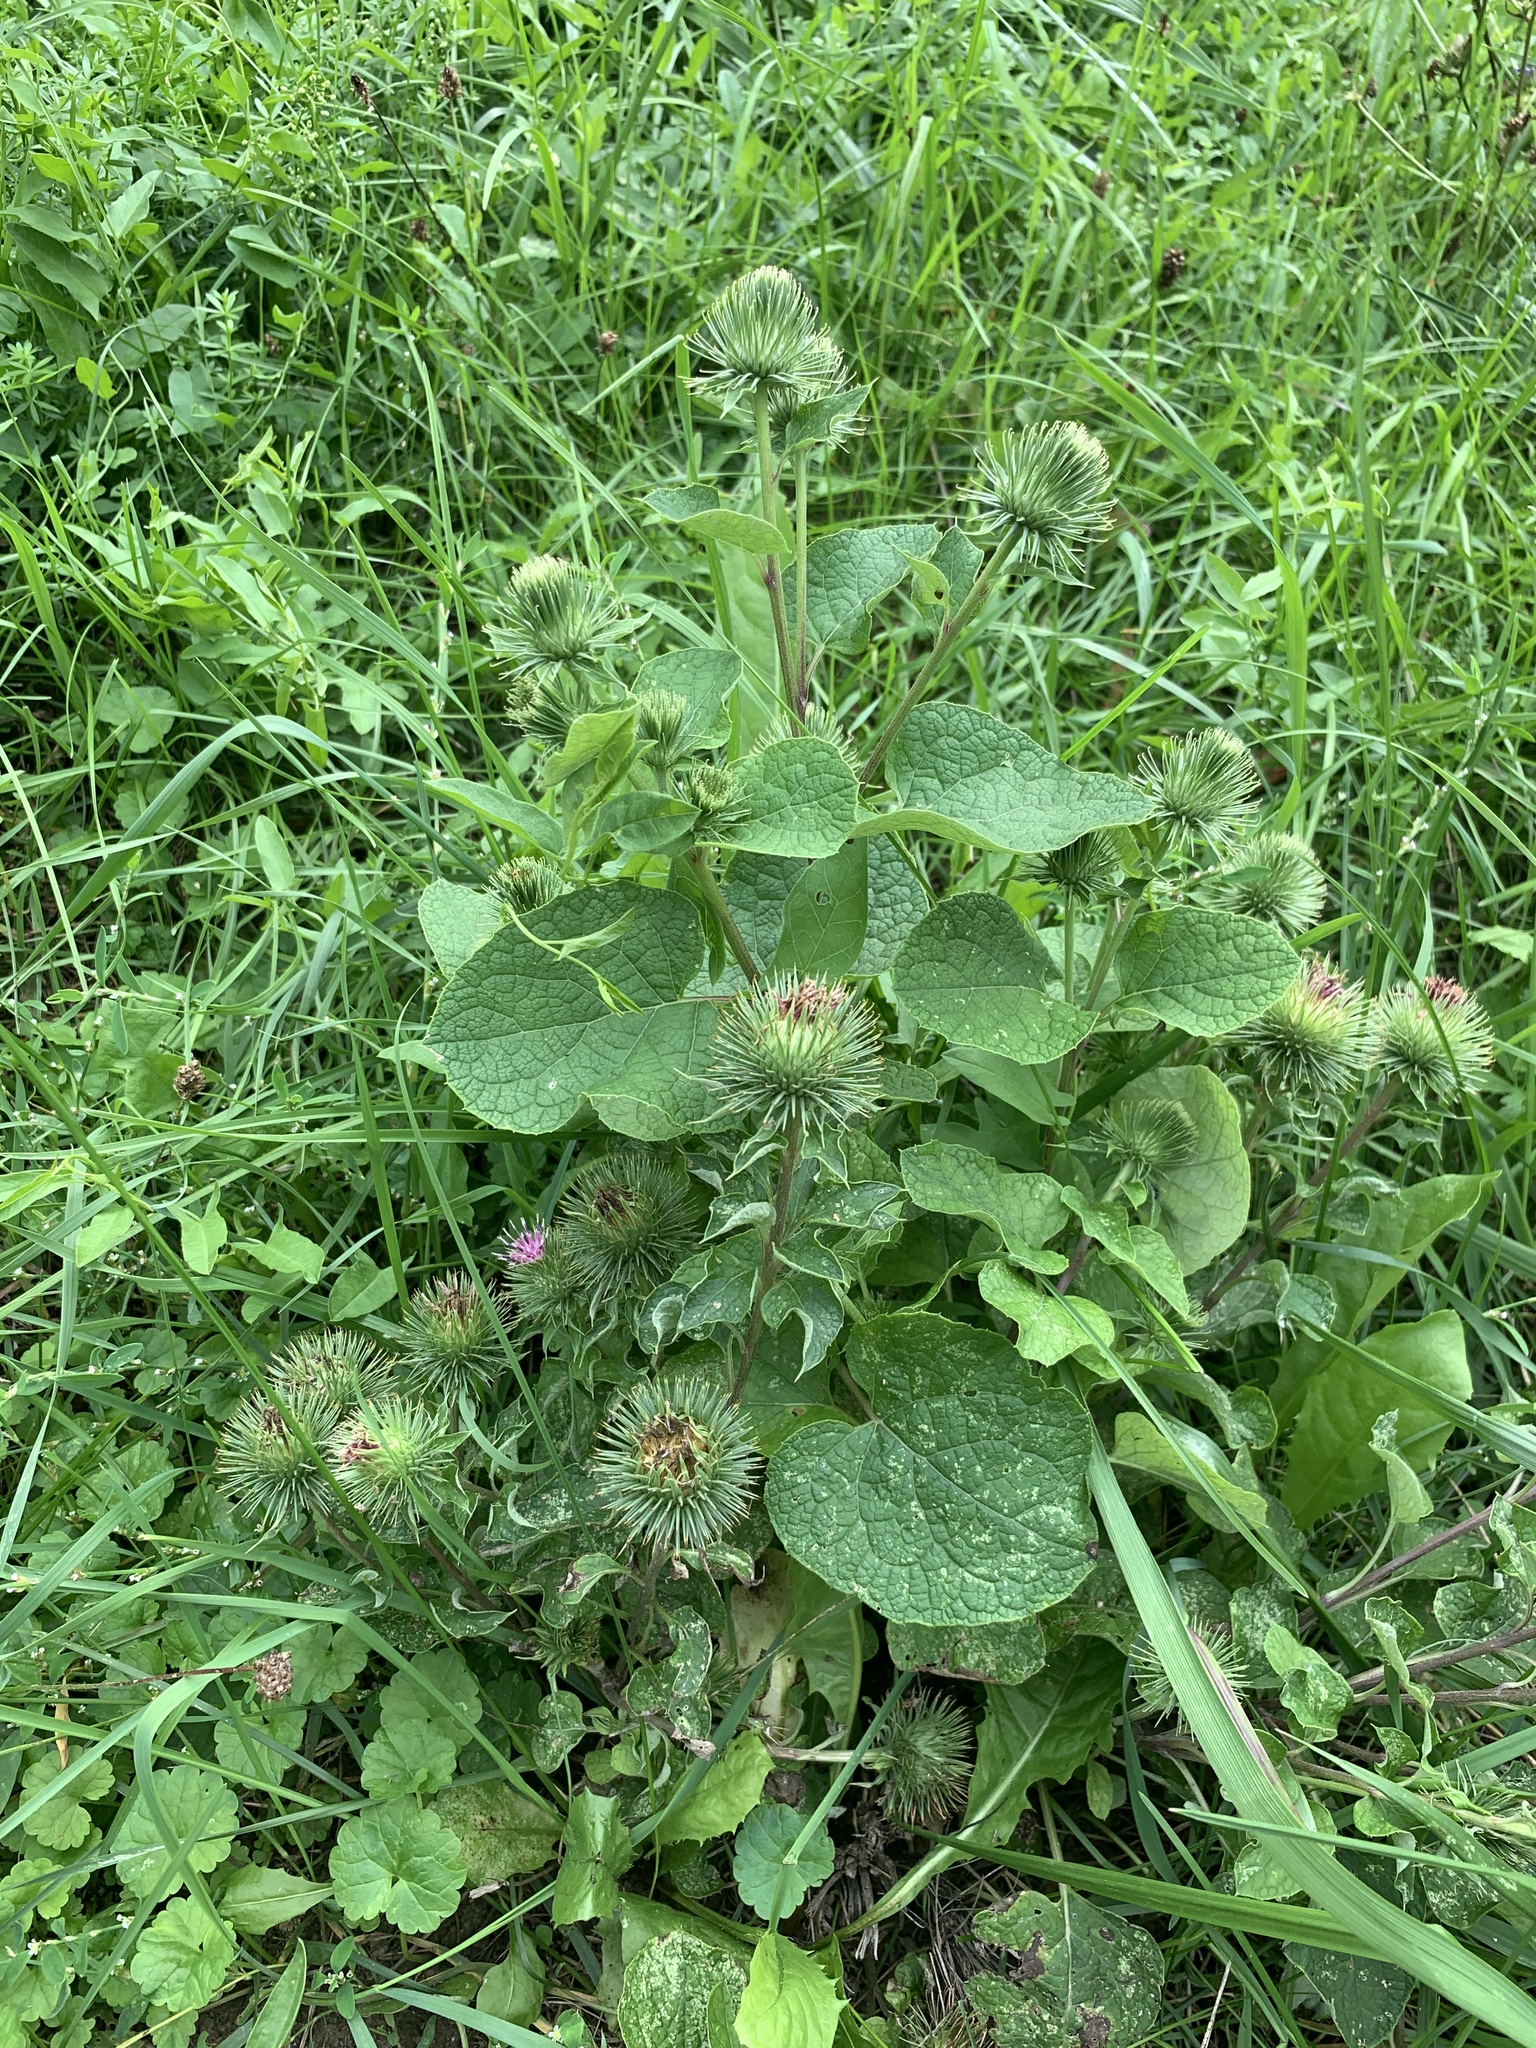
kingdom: Plantae
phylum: Tracheophyta
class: Magnoliopsida
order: Asterales
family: Asteraceae
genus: Arctium
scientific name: Arctium lappa
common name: Greater burdock
